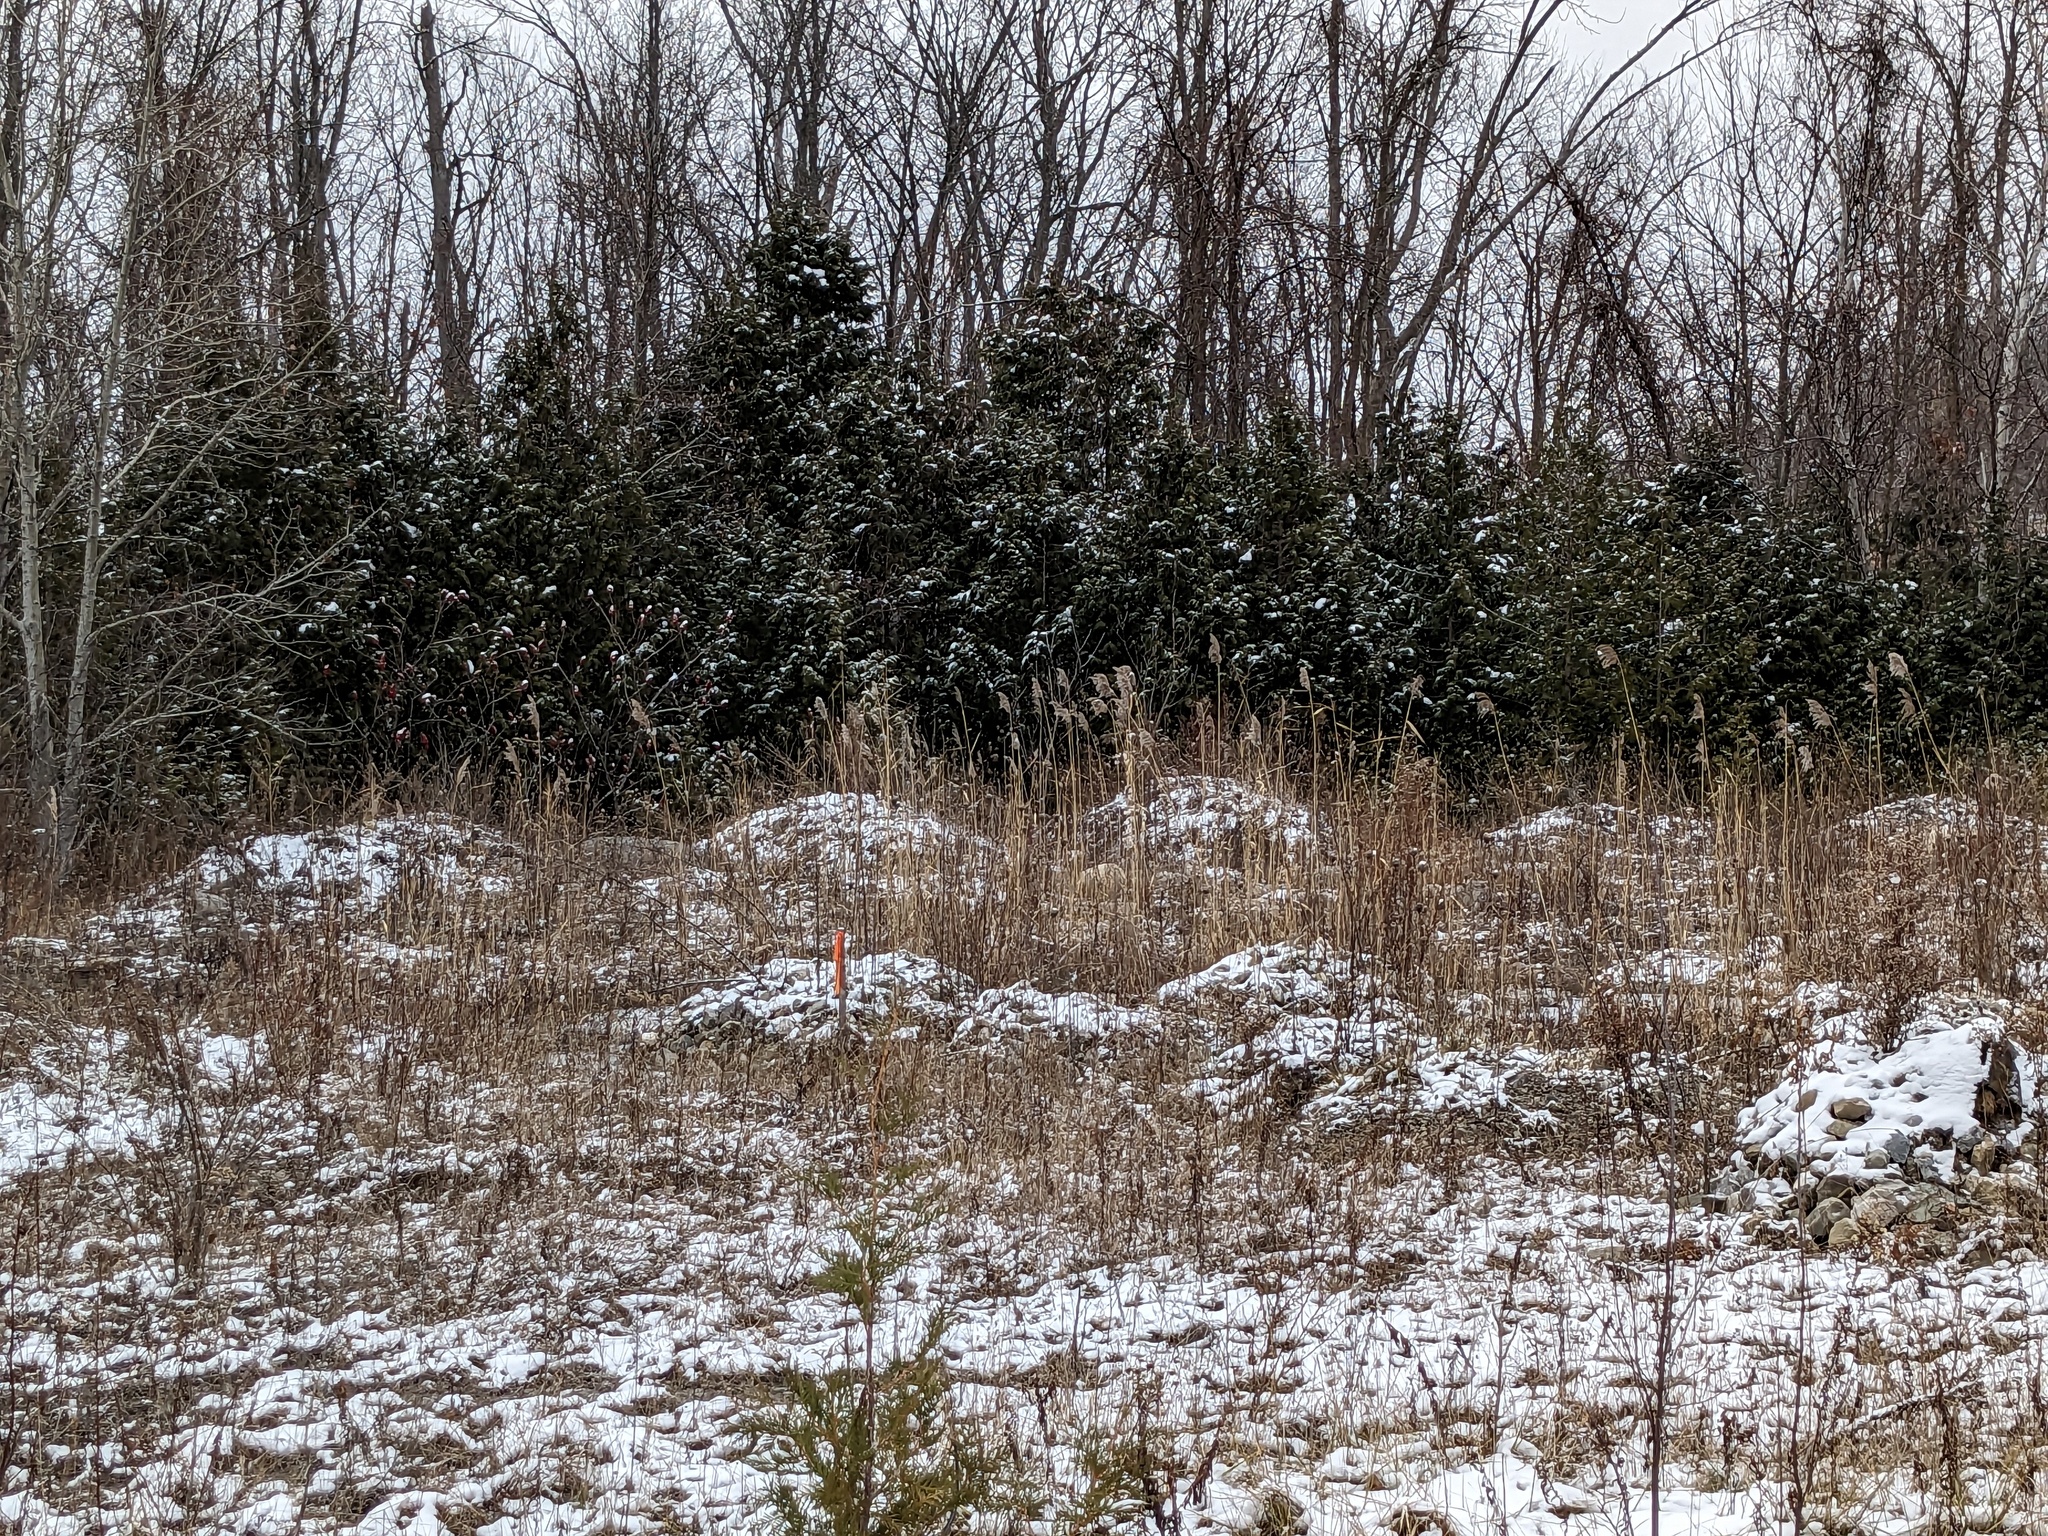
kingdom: Plantae
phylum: Tracheophyta
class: Liliopsida
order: Poales
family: Poaceae
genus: Phragmites
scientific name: Phragmites australis
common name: Common reed
